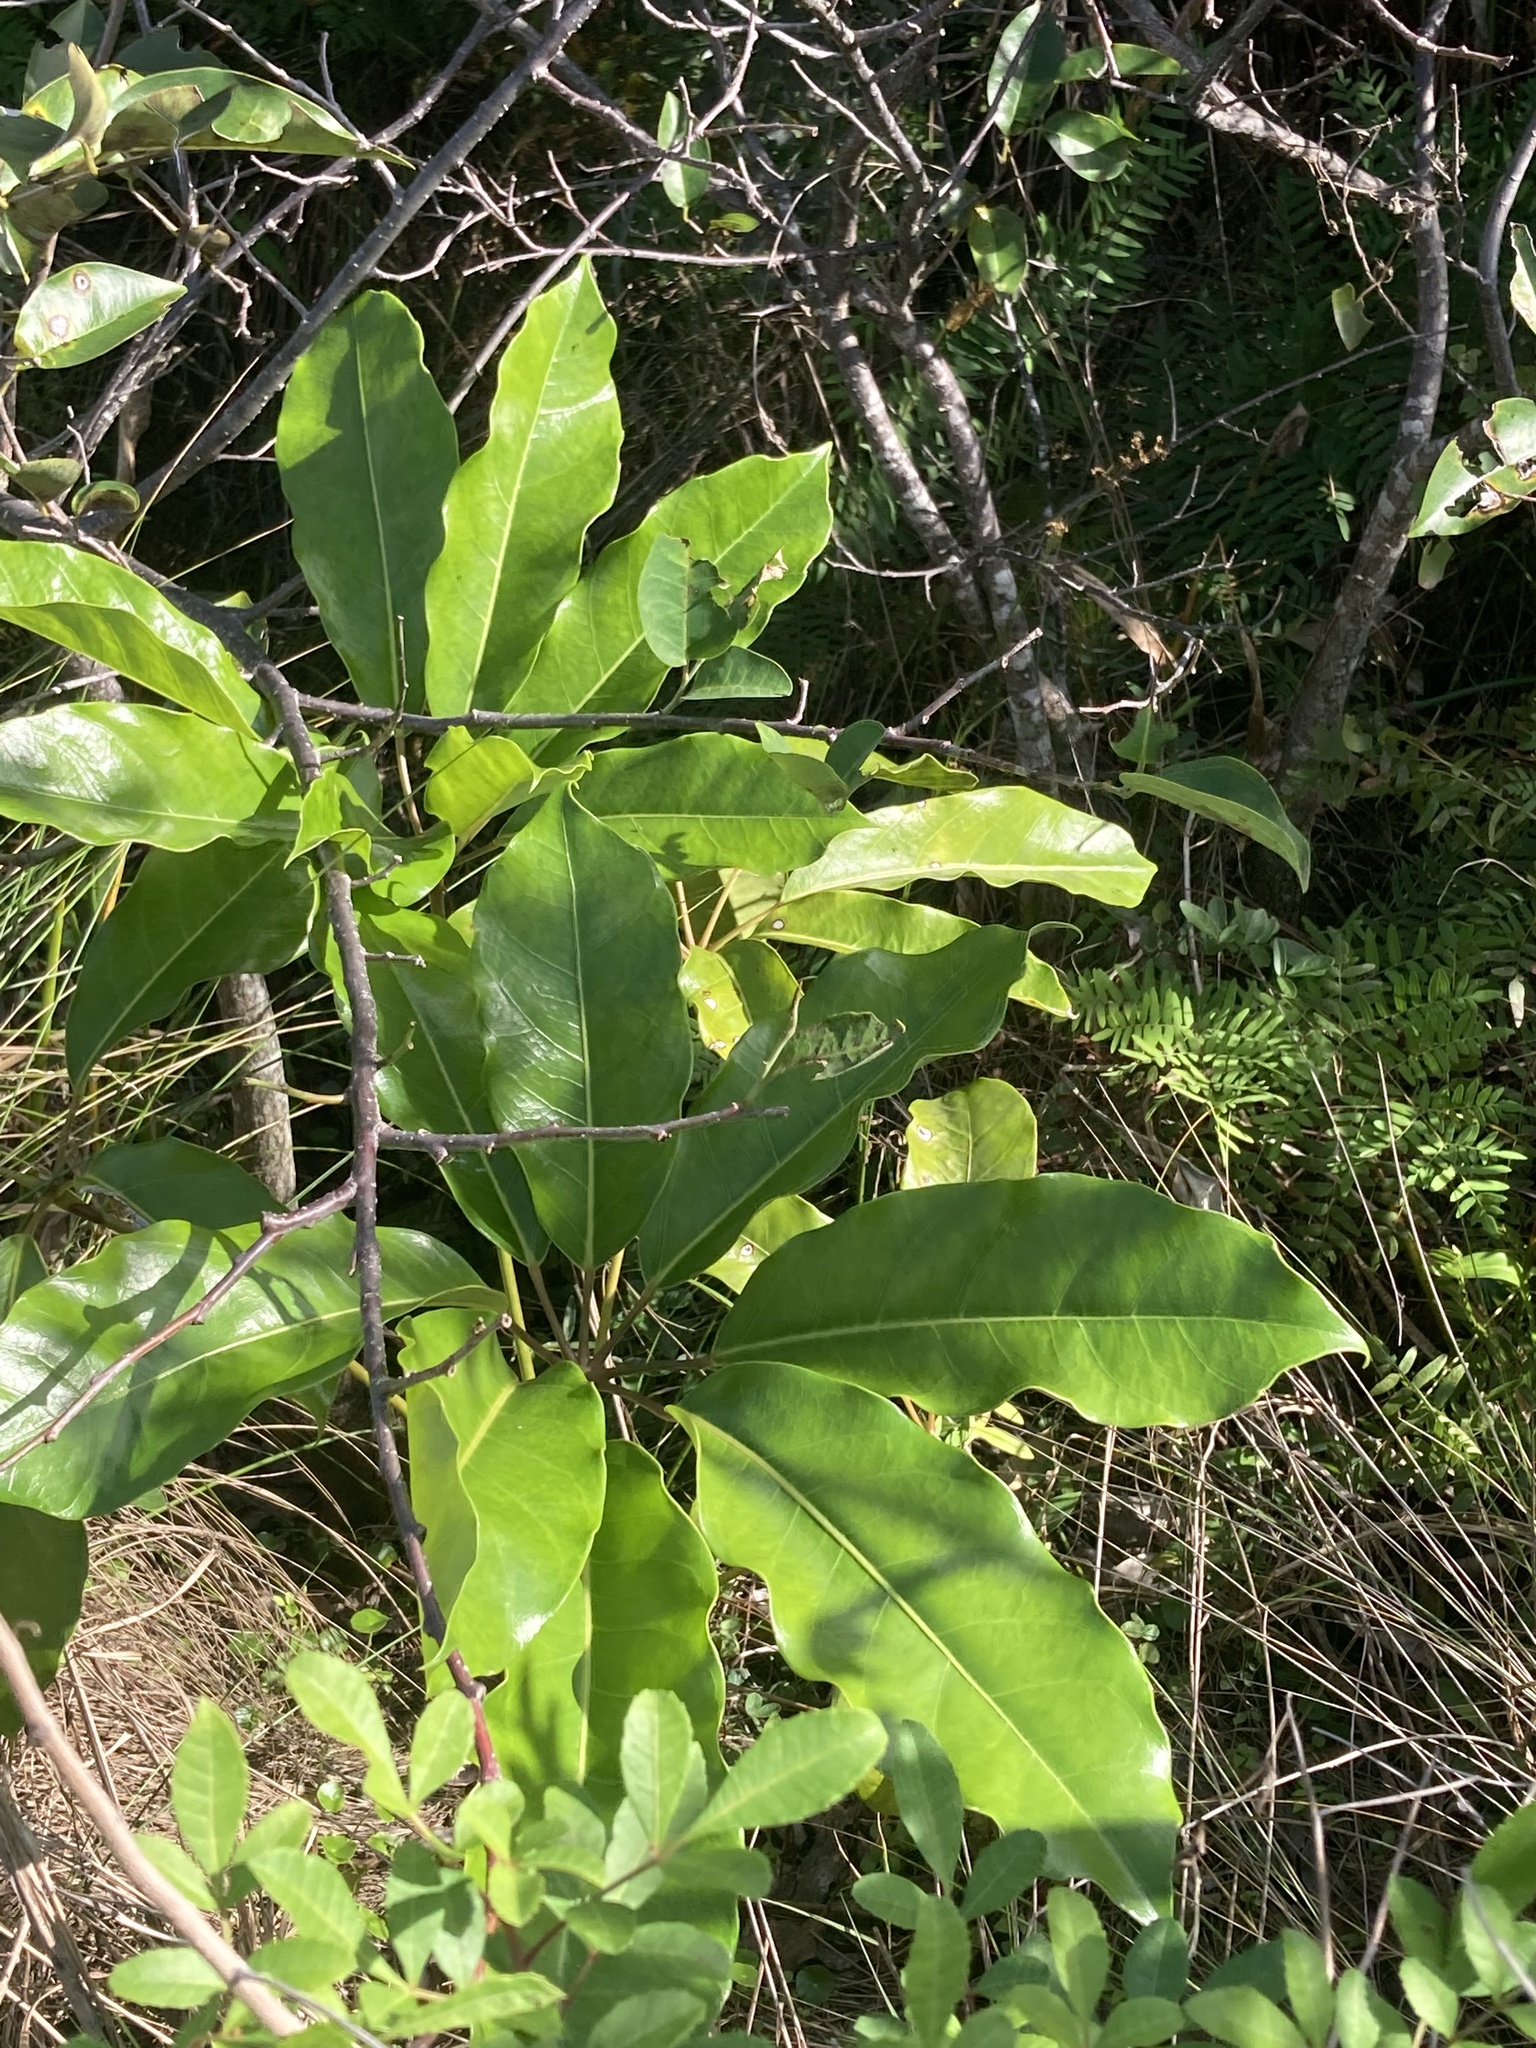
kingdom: Plantae
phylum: Tracheophyta
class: Magnoliopsida
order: Apiales
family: Araliaceae
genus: Heptapleurum
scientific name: Heptapleurum actinophyllum
